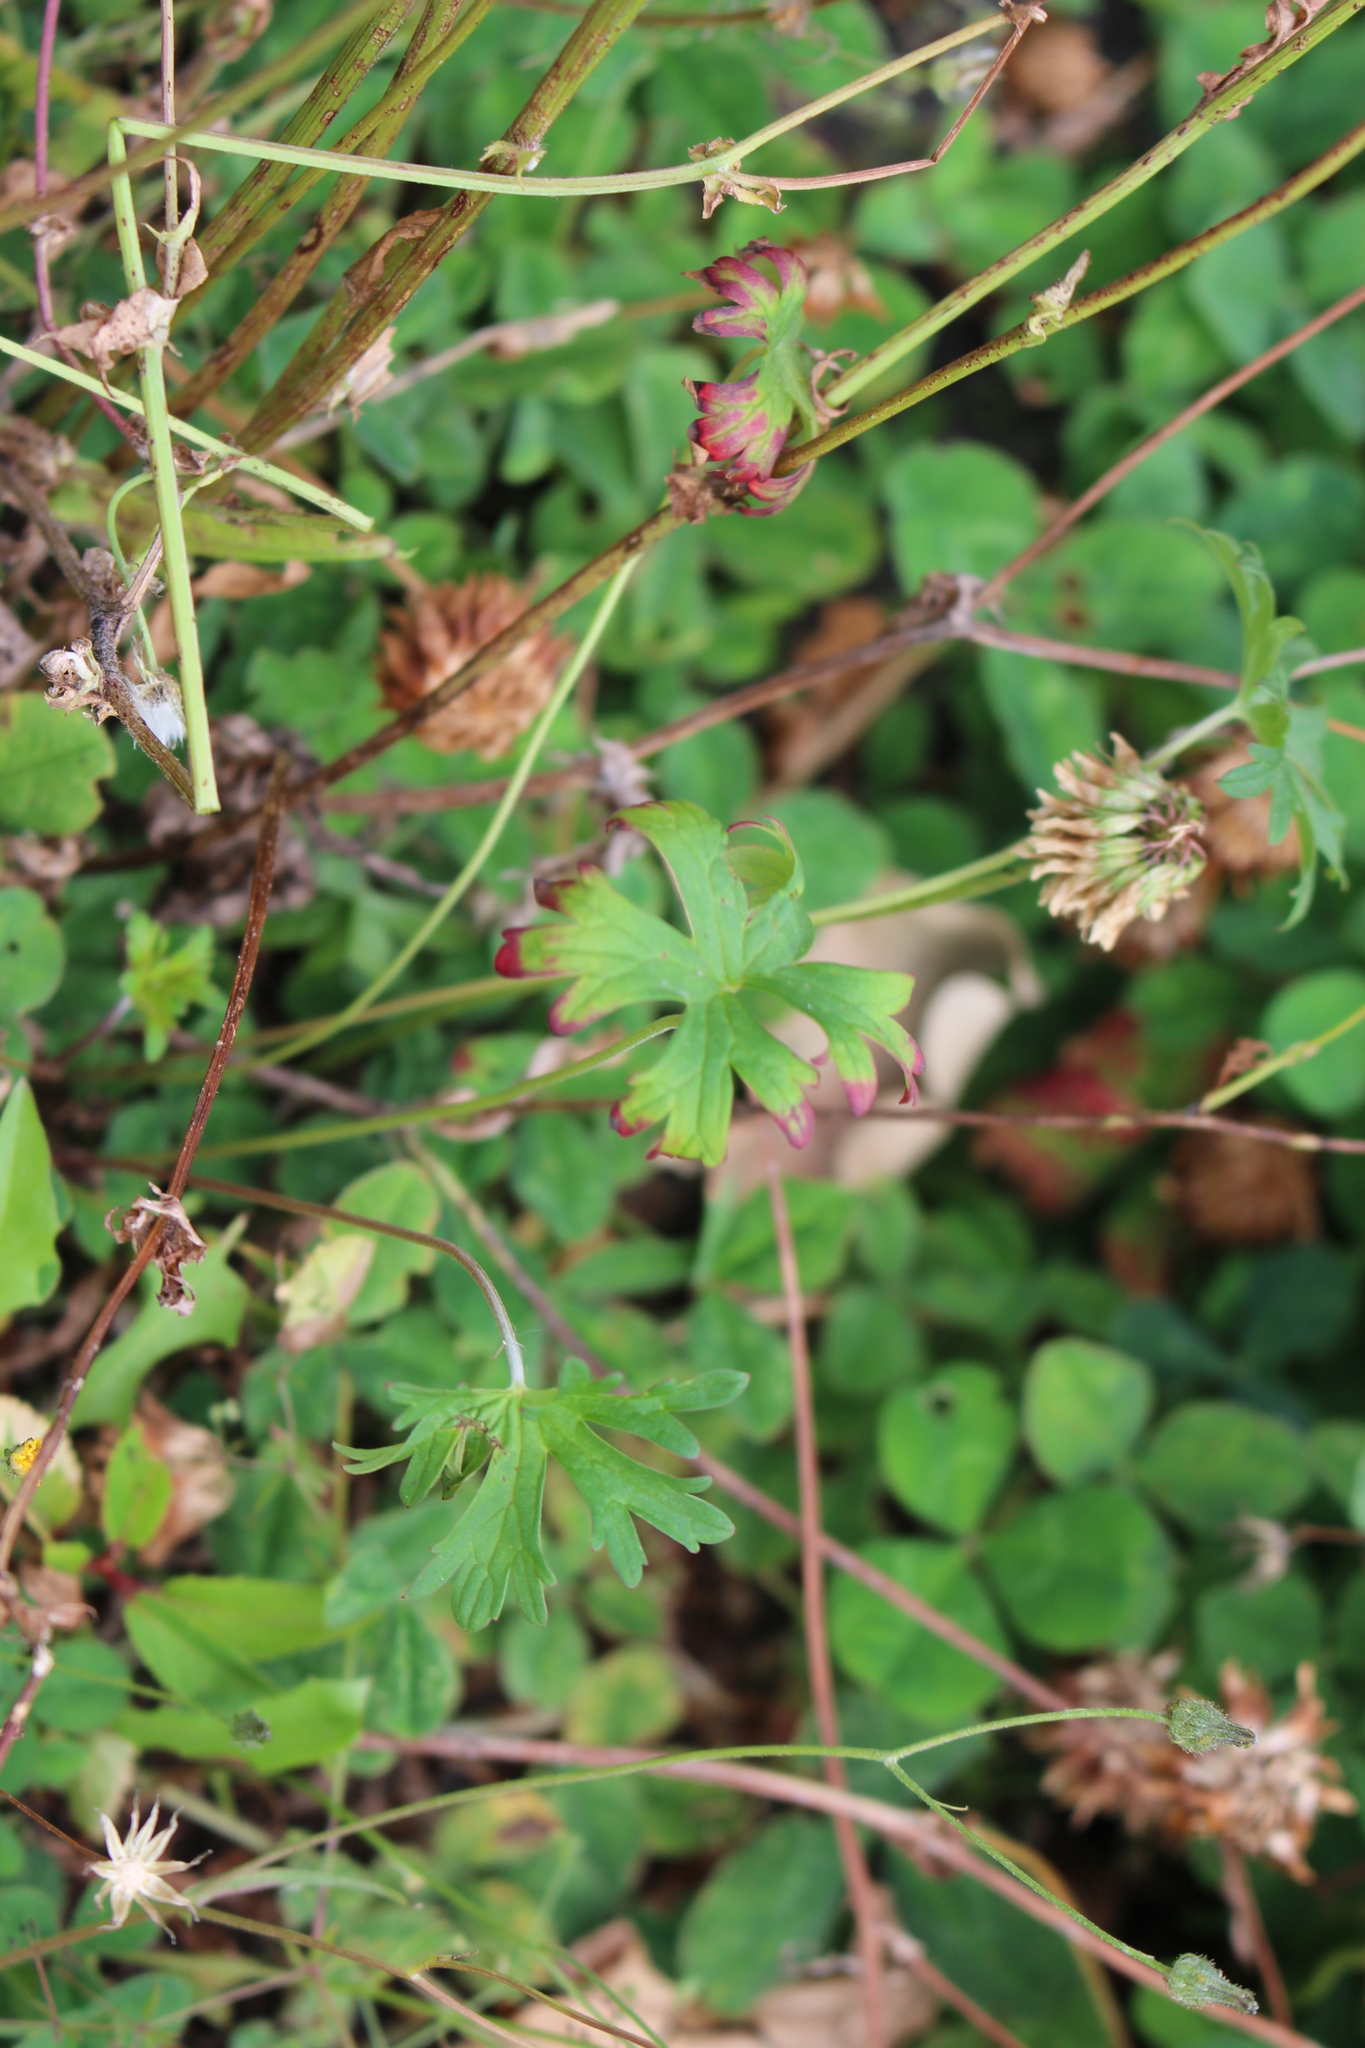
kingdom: Plantae
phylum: Tracheophyta
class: Magnoliopsida
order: Geraniales
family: Geraniaceae
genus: Geranium
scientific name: Geranium retrorsum
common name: New zealand geranium
